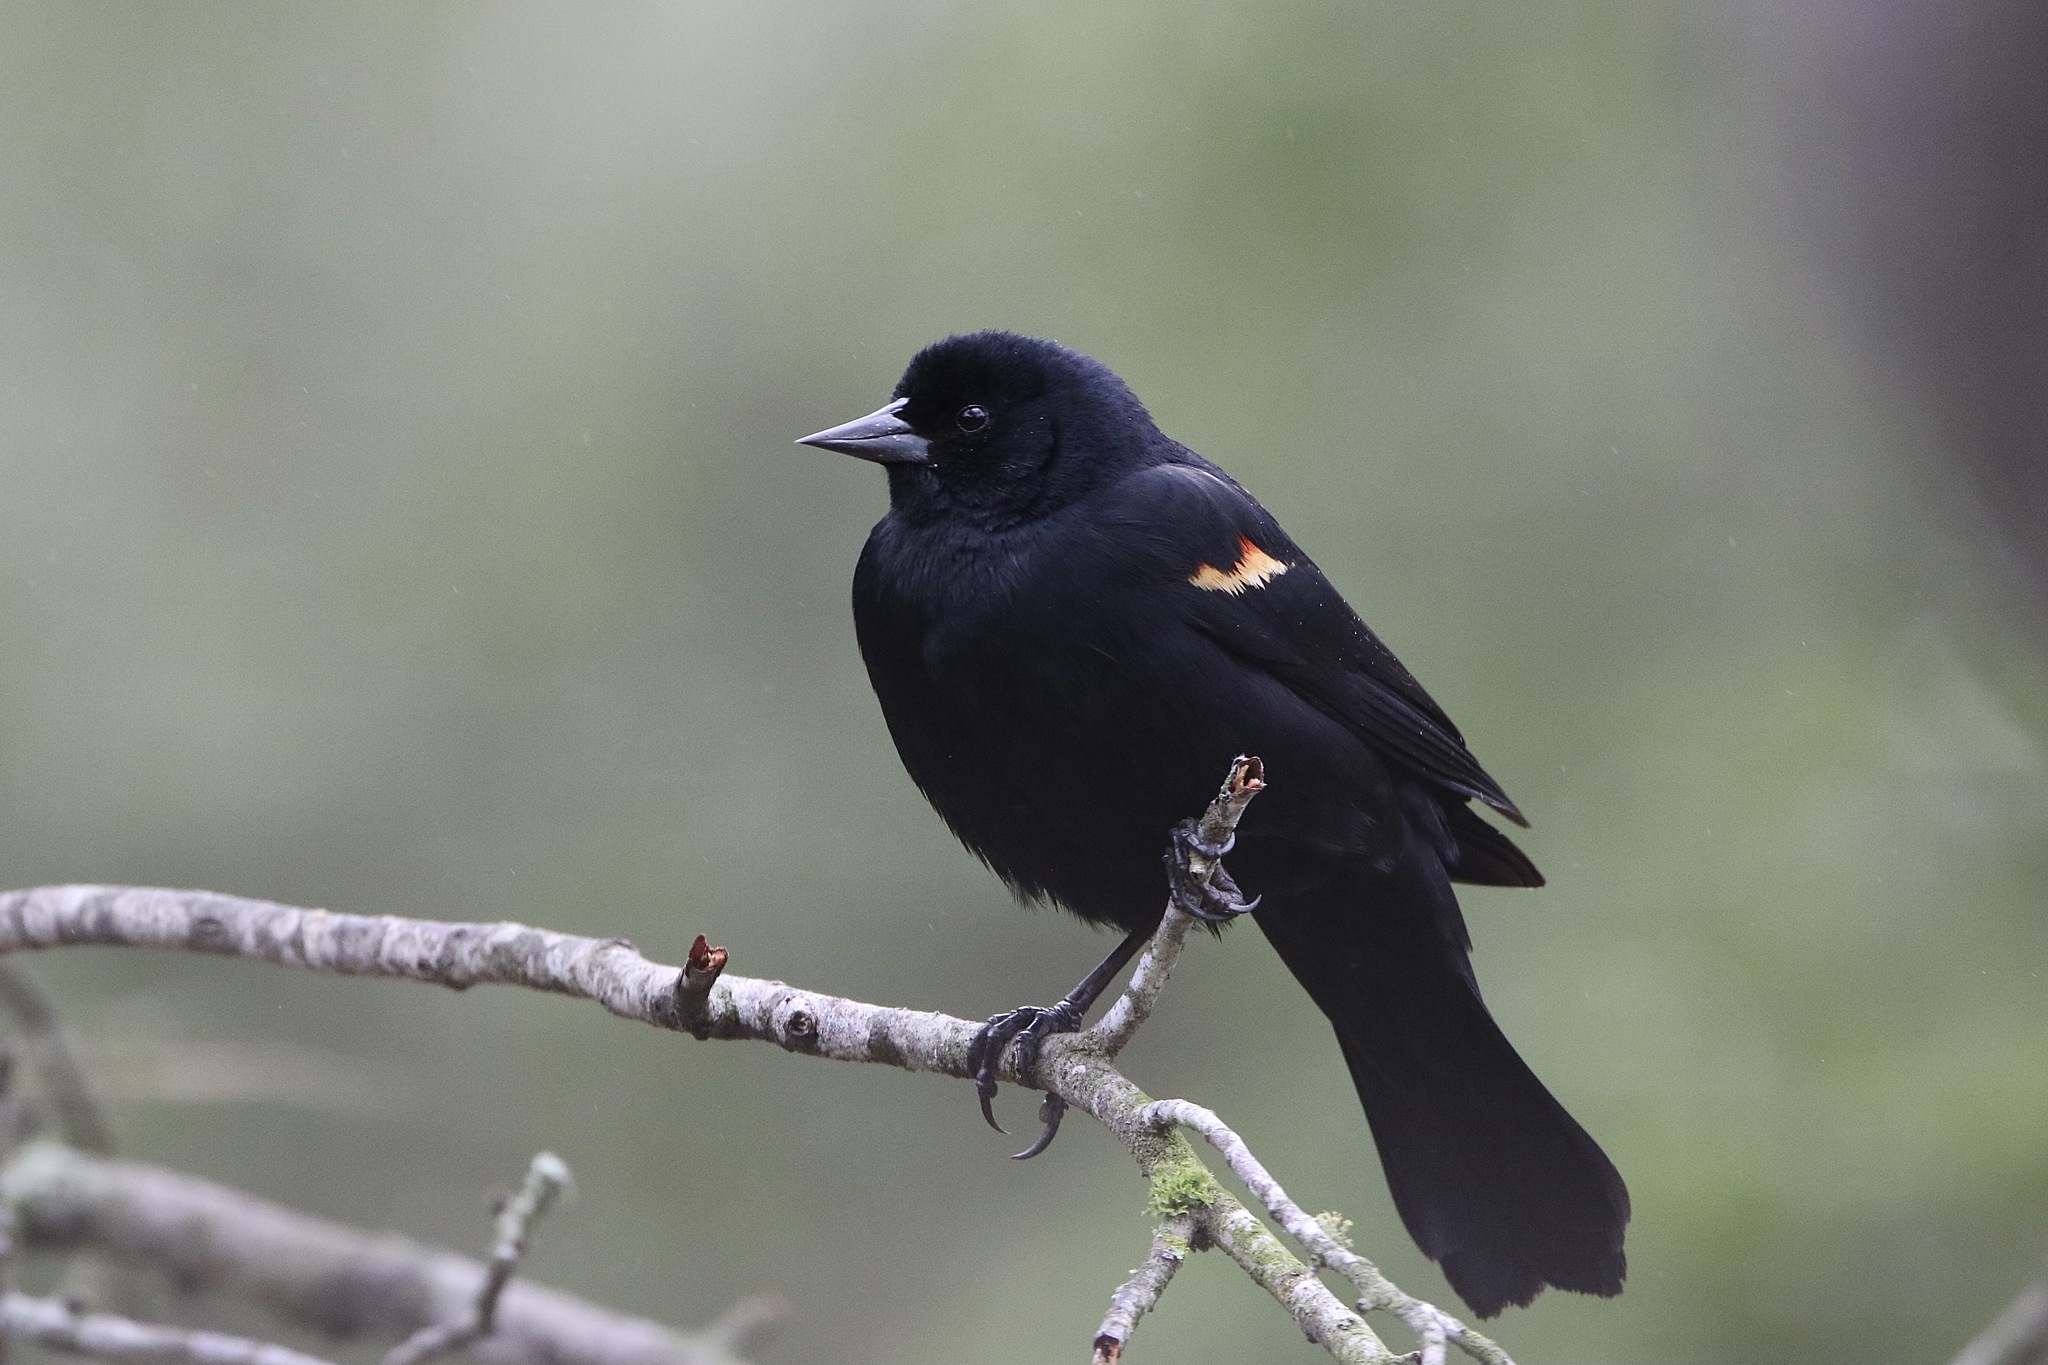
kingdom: Animalia
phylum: Chordata
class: Aves
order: Passeriformes
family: Icteridae
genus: Agelaius
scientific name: Agelaius phoeniceus
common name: Red-winged blackbird
